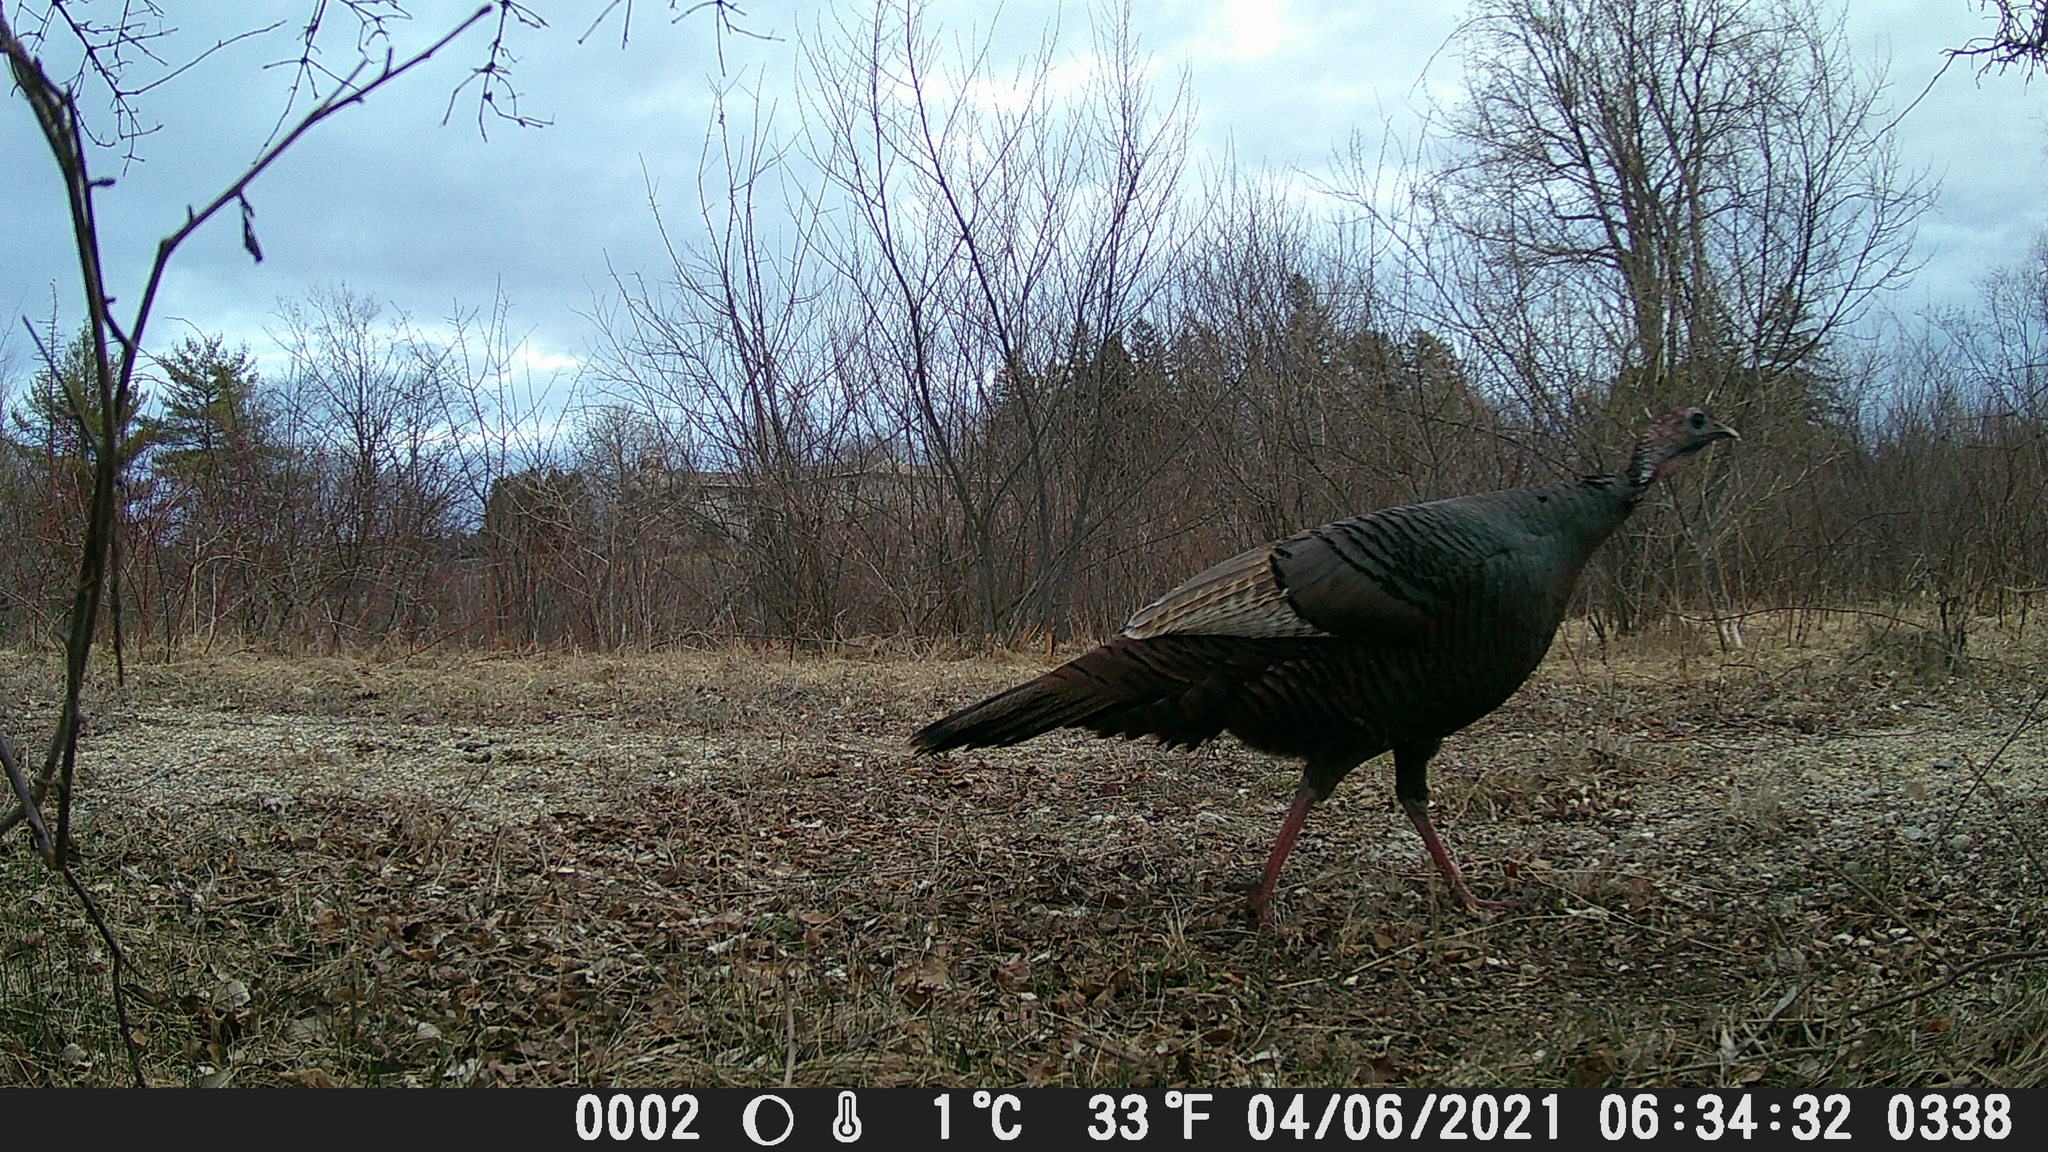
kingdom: Animalia
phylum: Chordata
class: Aves
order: Galliformes
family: Phasianidae
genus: Meleagris
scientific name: Meleagris gallopavo
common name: Wild turkey
